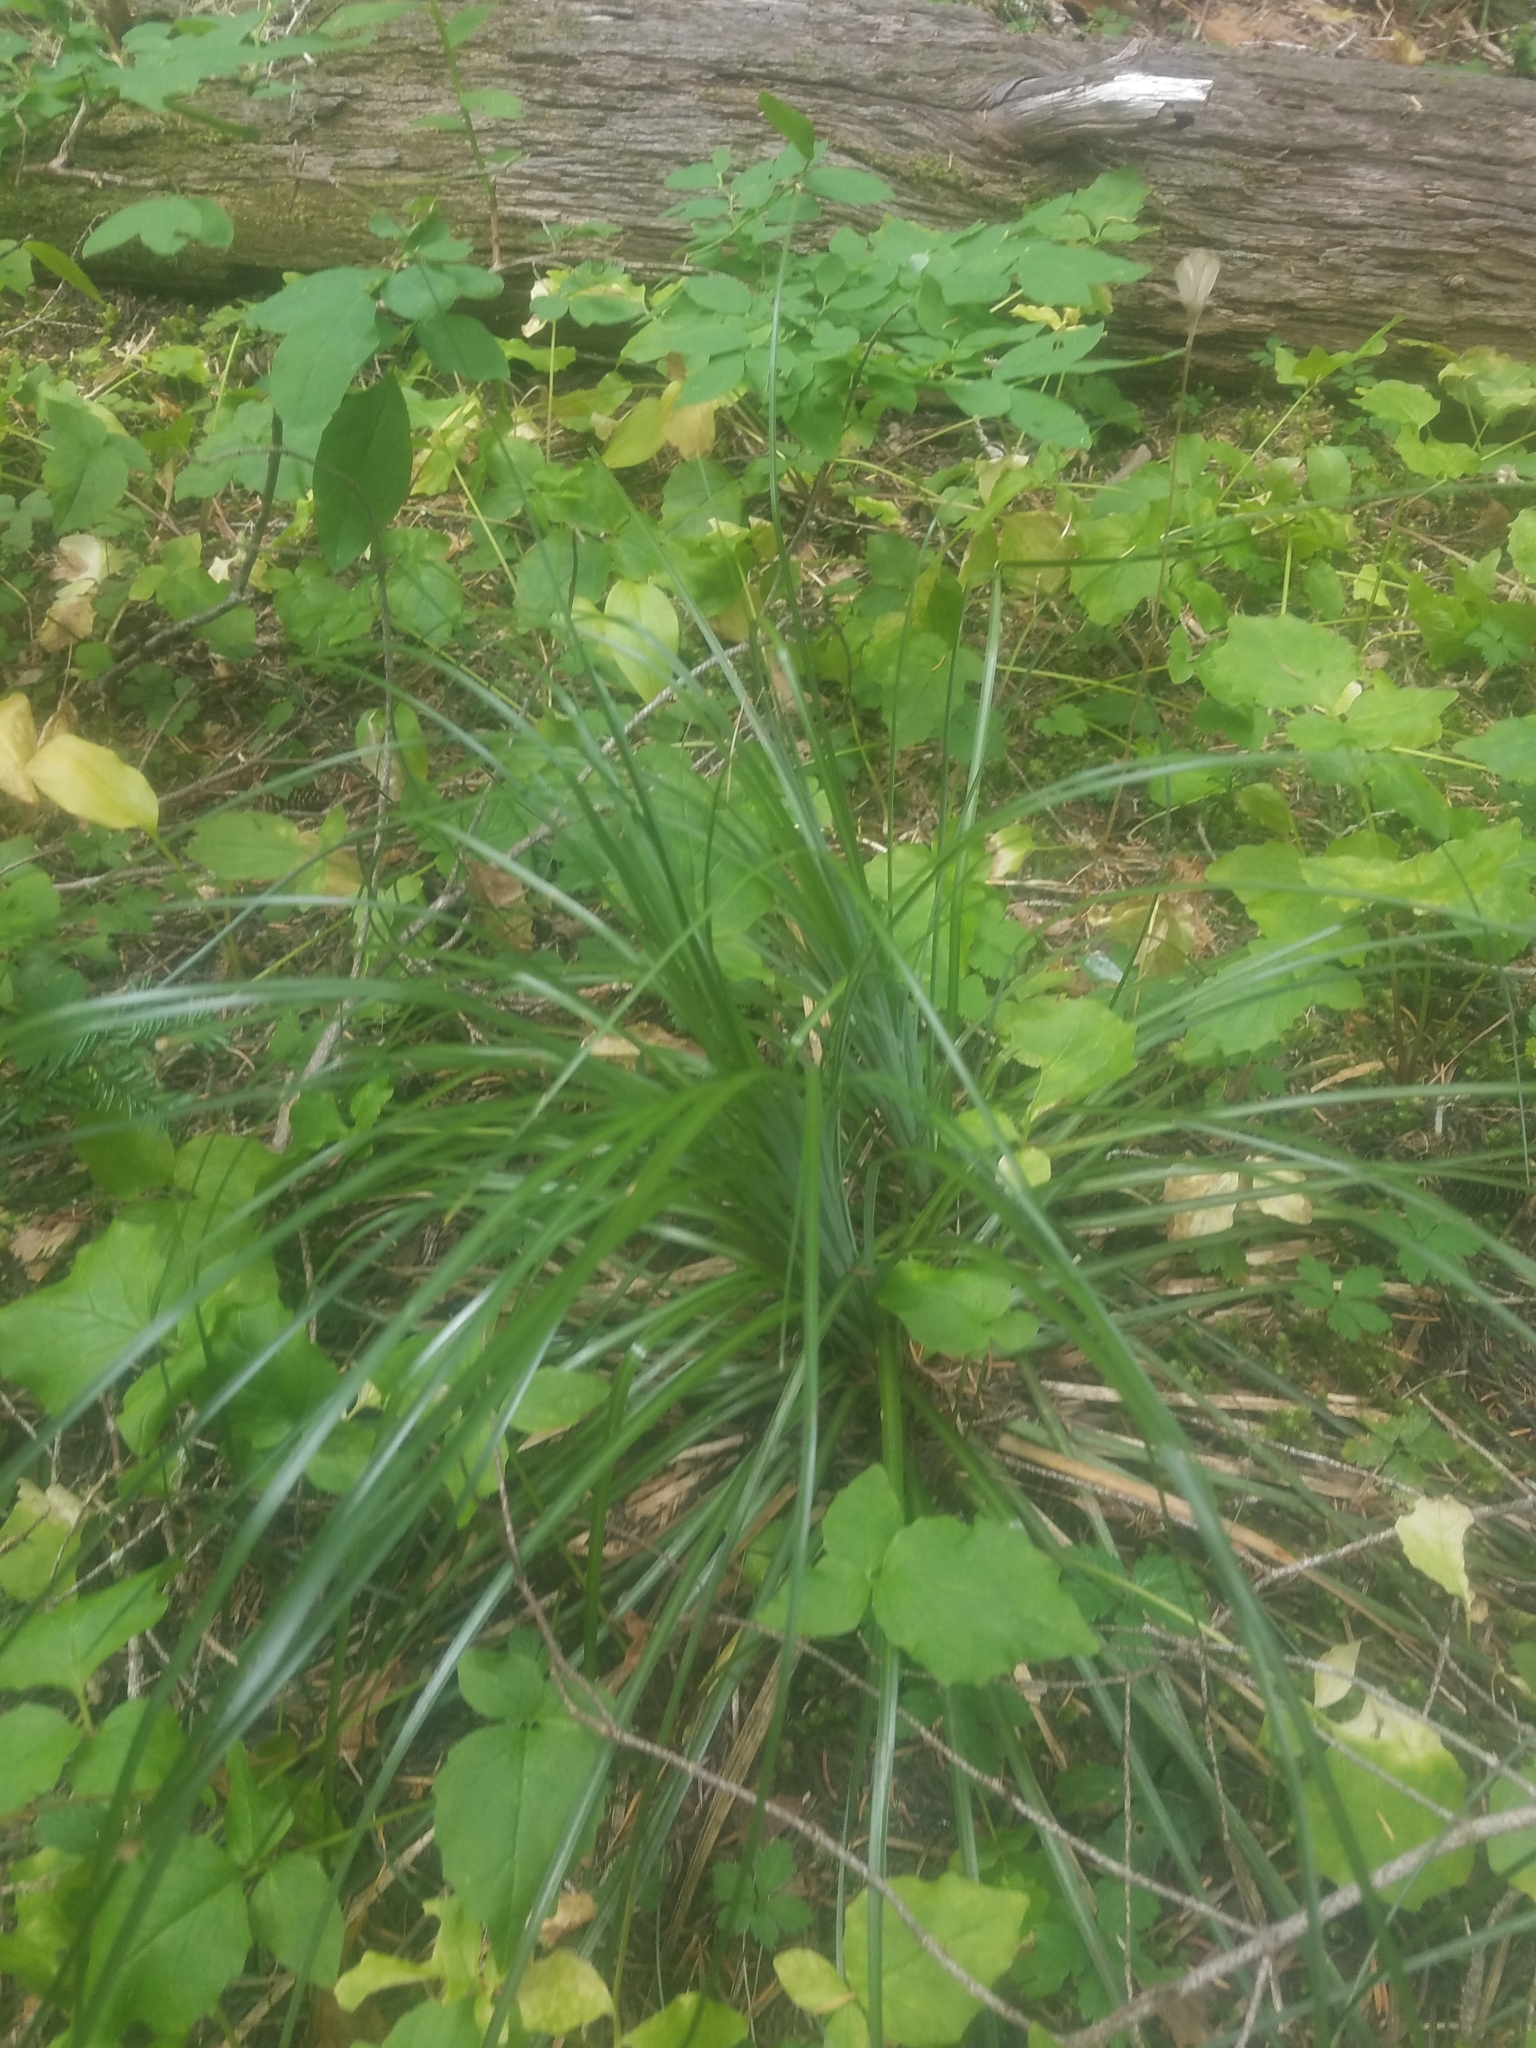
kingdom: Plantae
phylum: Tracheophyta
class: Liliopsida
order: Liliales
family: Melanthiaceae
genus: Xerophyllum
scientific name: Xerophyllum tenax
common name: Bear-grass
